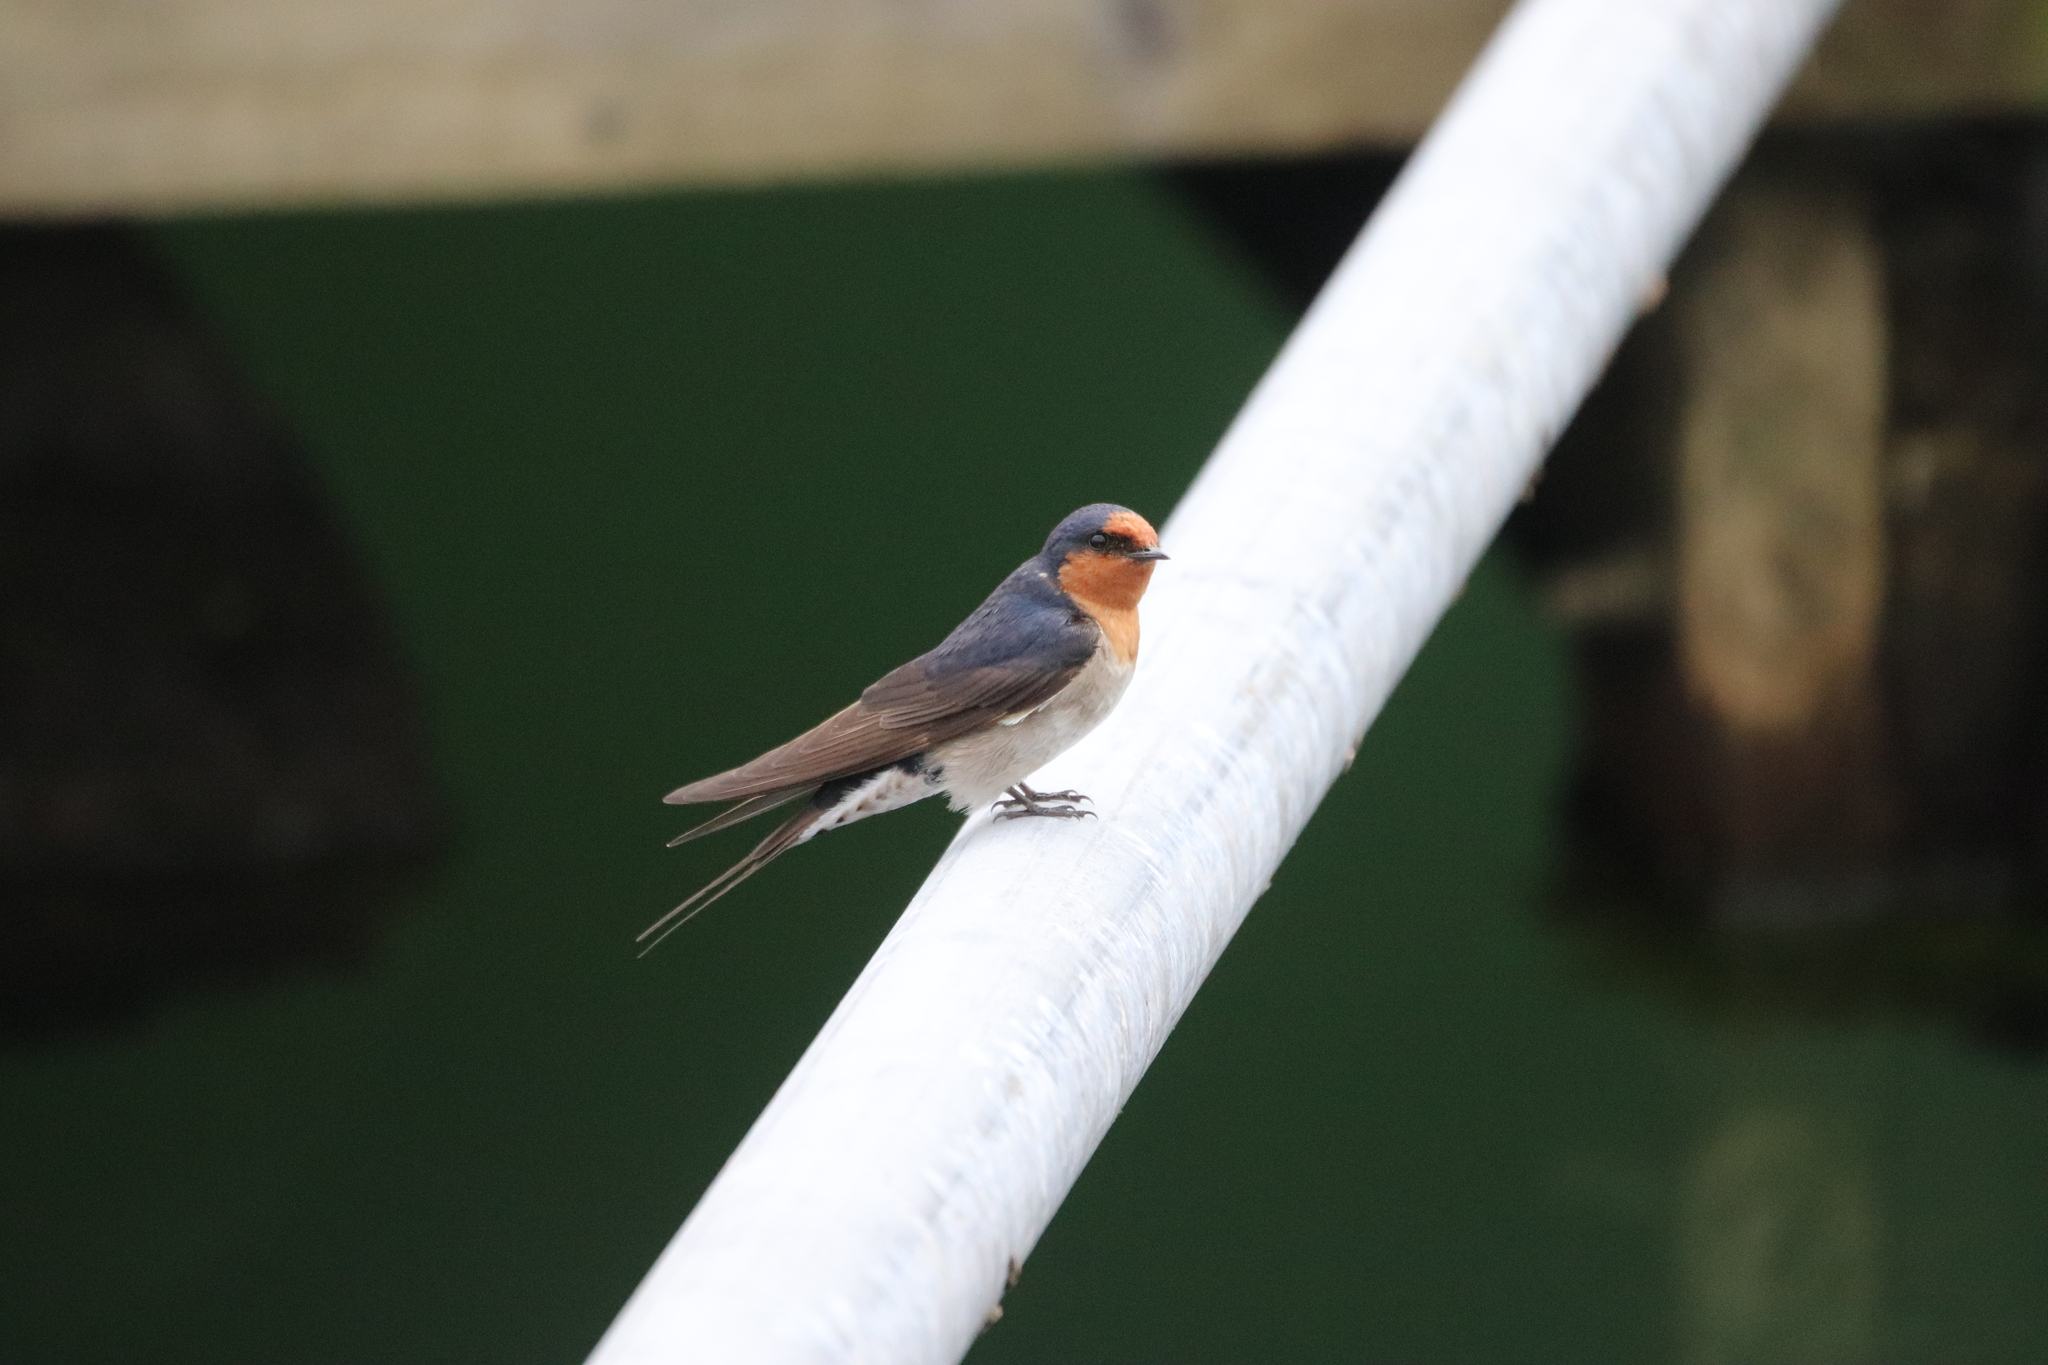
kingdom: Animalia
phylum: Chordata
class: Aves
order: Passeriformes
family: Hirundinidae
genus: Hirundo
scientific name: Hirundo neoxena
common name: Welcome swallow
